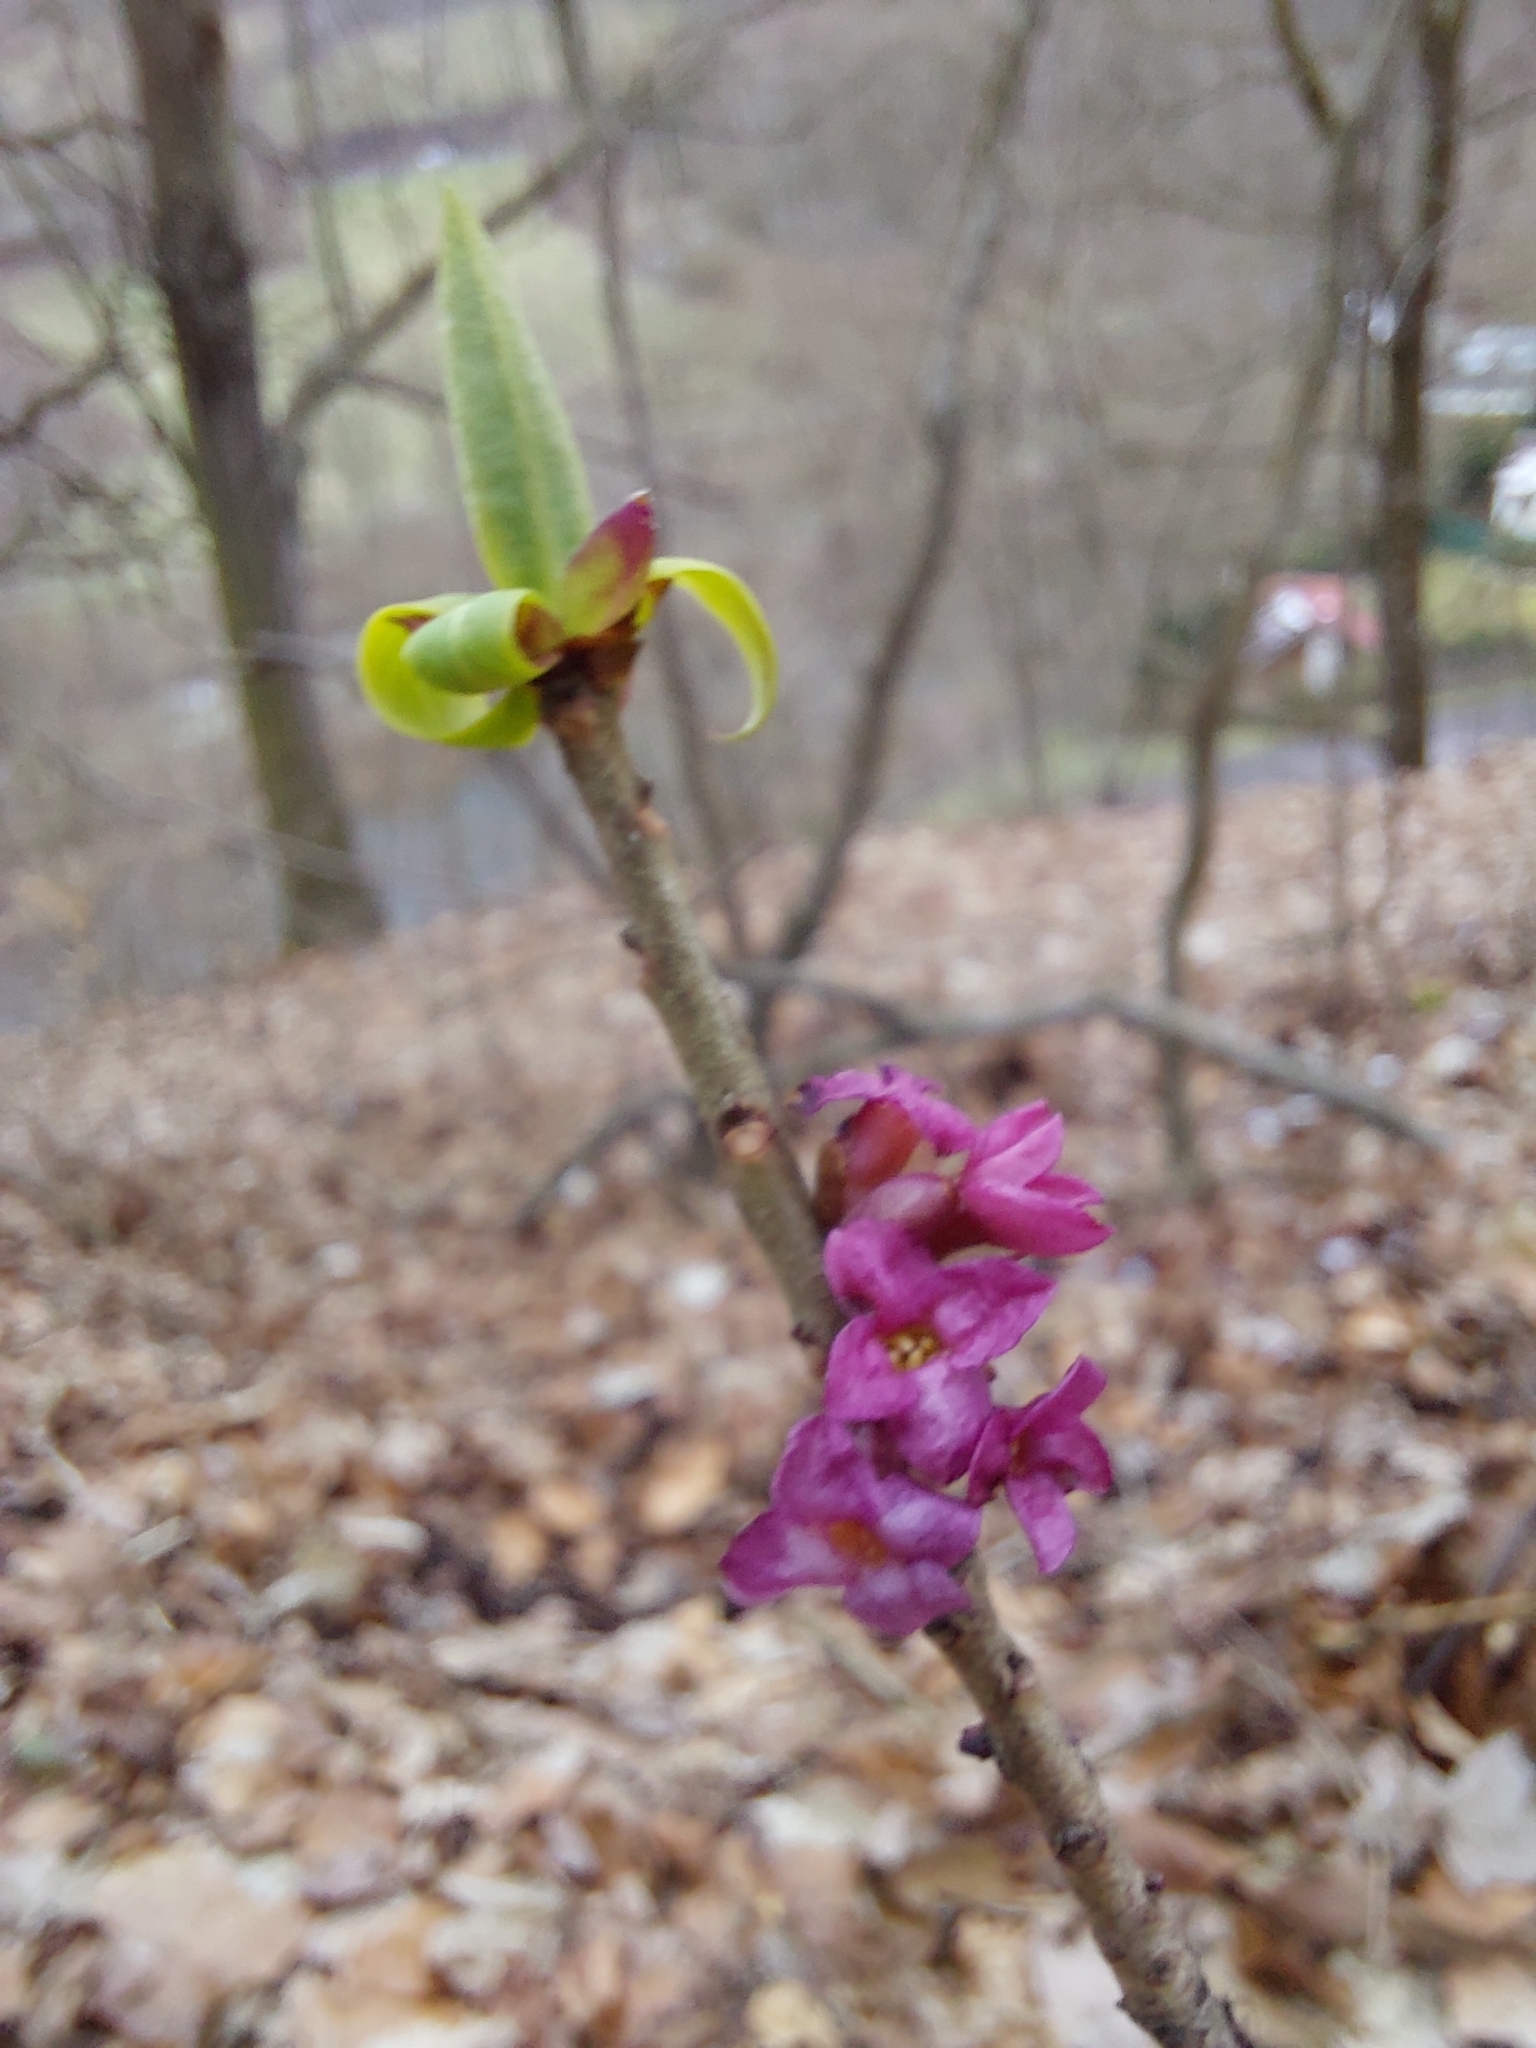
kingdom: Plantae
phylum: Tracheophyta
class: Magnoliopsida
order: Malvales
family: Thymelaeaceae
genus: Daphne
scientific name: Daphne mezereum
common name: Mezereon
